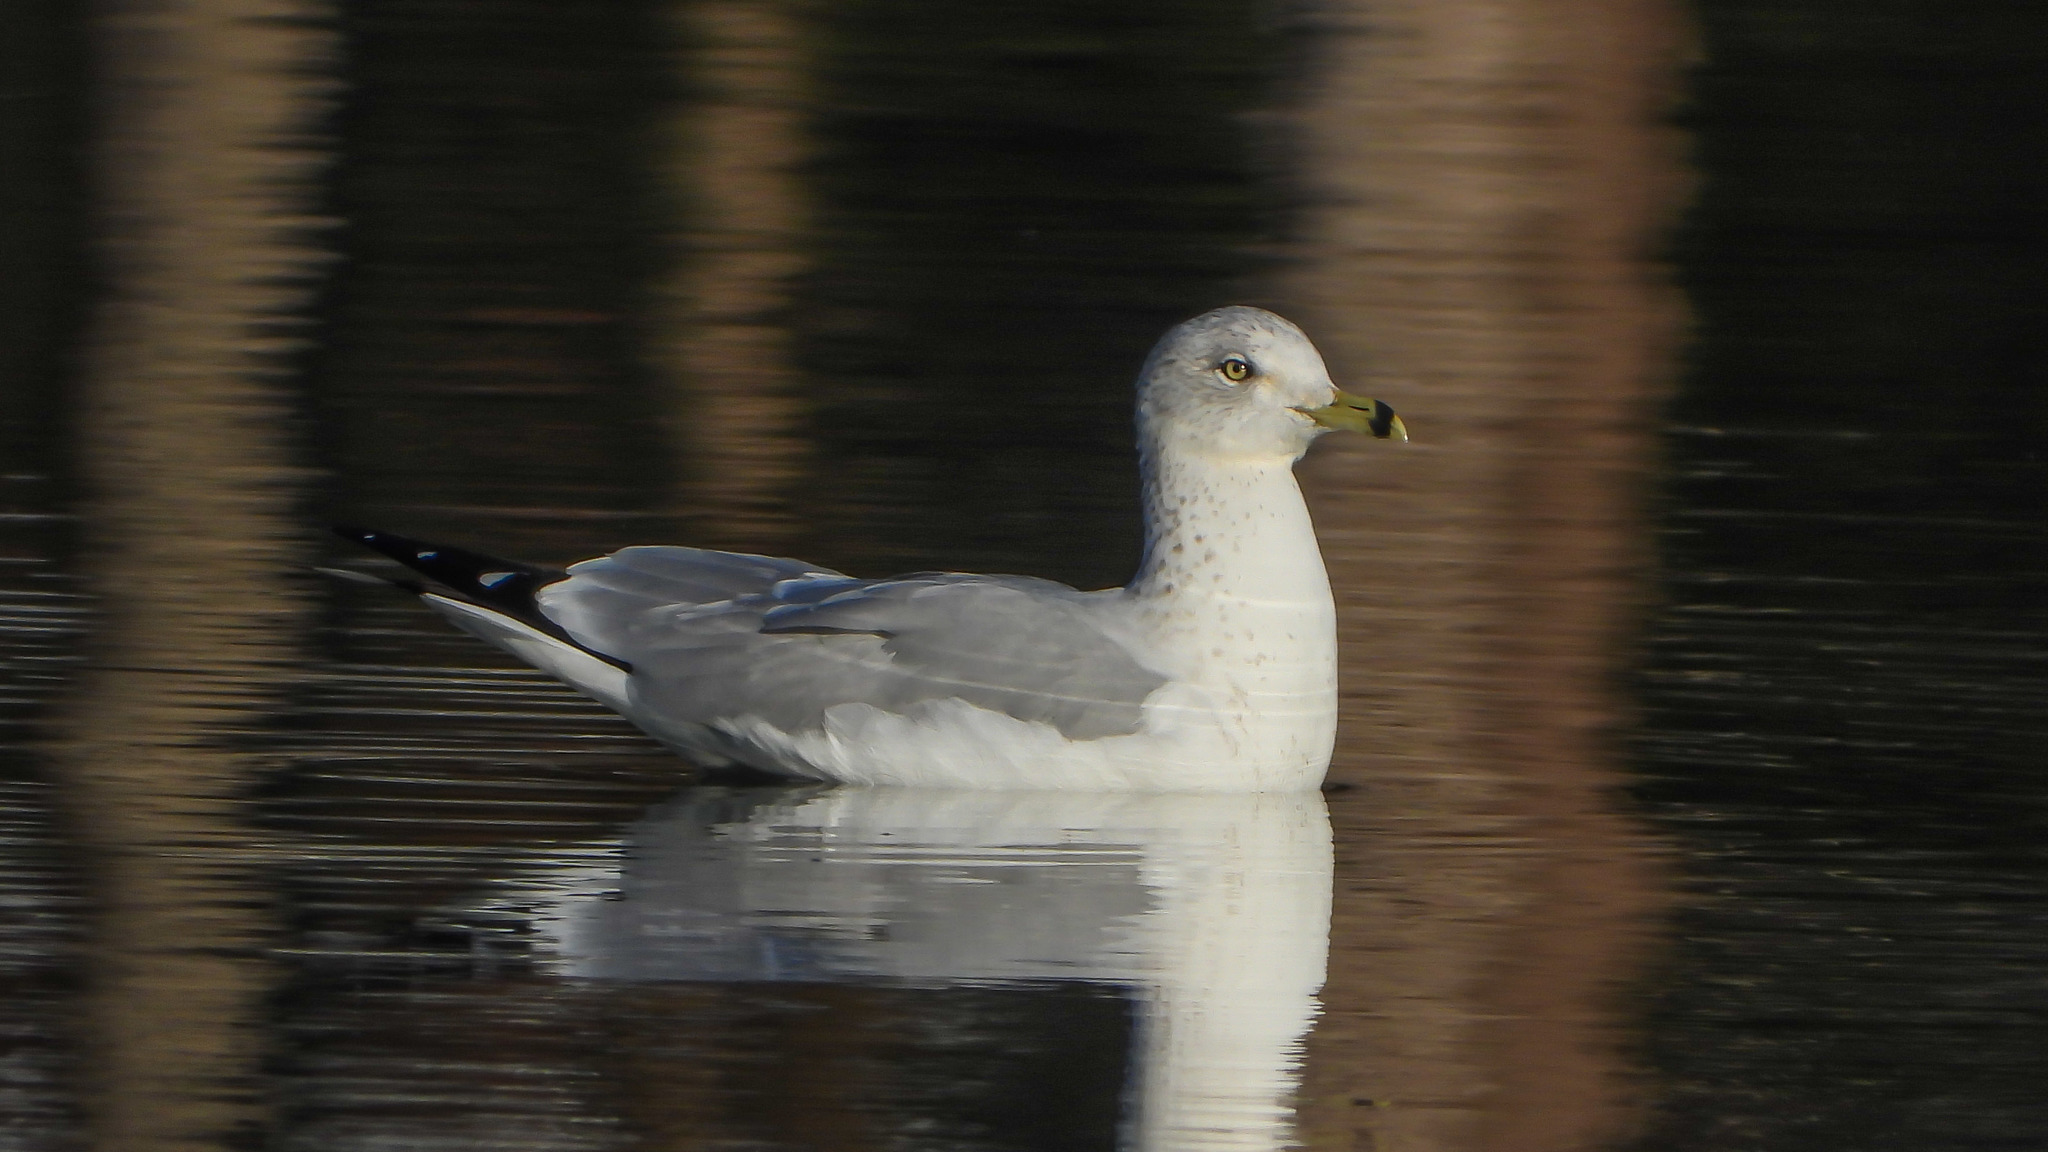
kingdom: Animalia
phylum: Chordata
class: Aves
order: Charadriiformes
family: Laridae
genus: Larus
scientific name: Larus delawarensis
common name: Ring-billed gull
